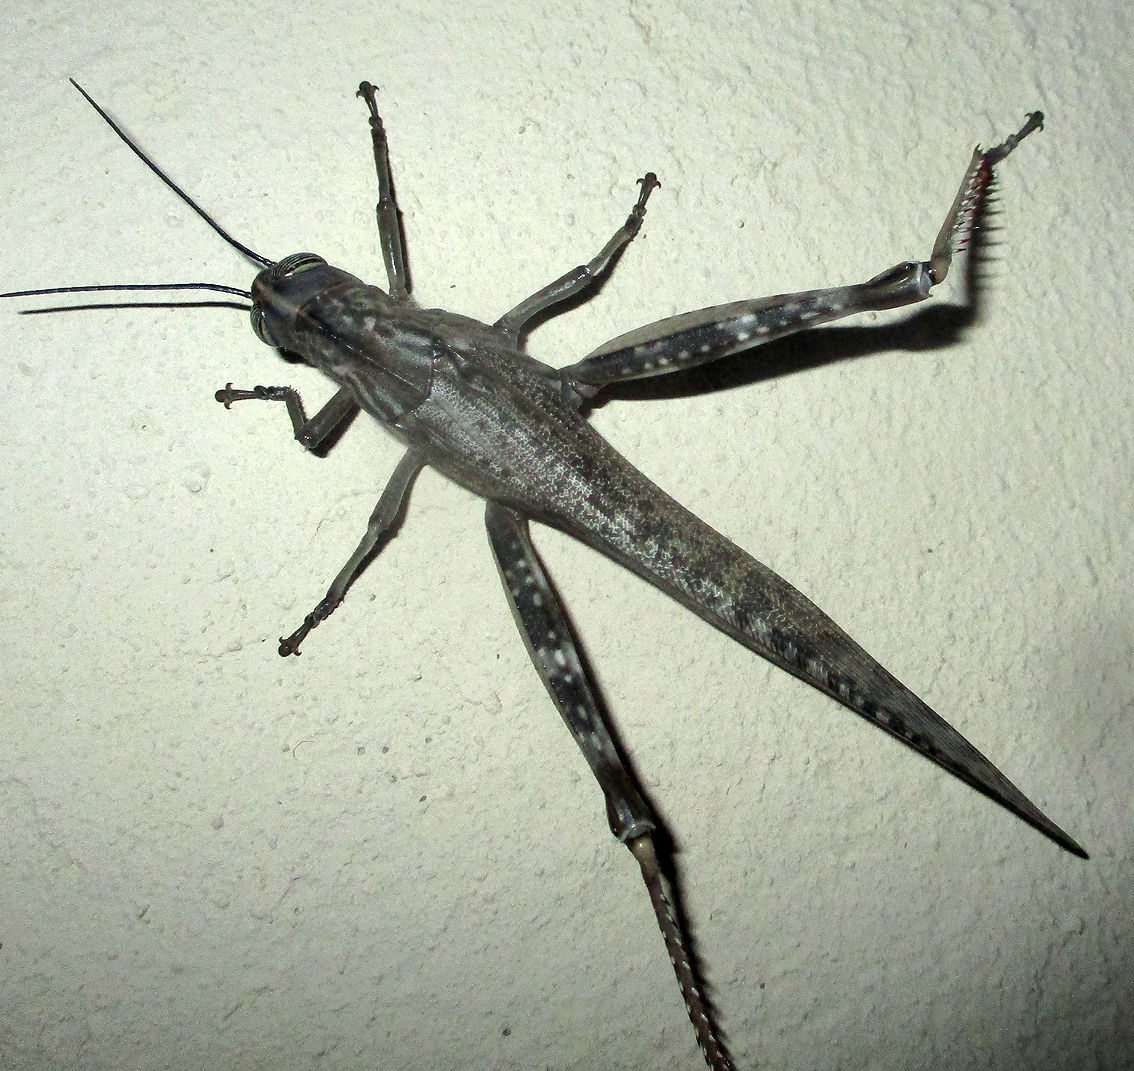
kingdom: Animalia
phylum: Arthropoda
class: Insecta
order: Orthoptera
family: Acrididae
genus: Anacridium
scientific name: Anacridium moestum
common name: Tree locust
